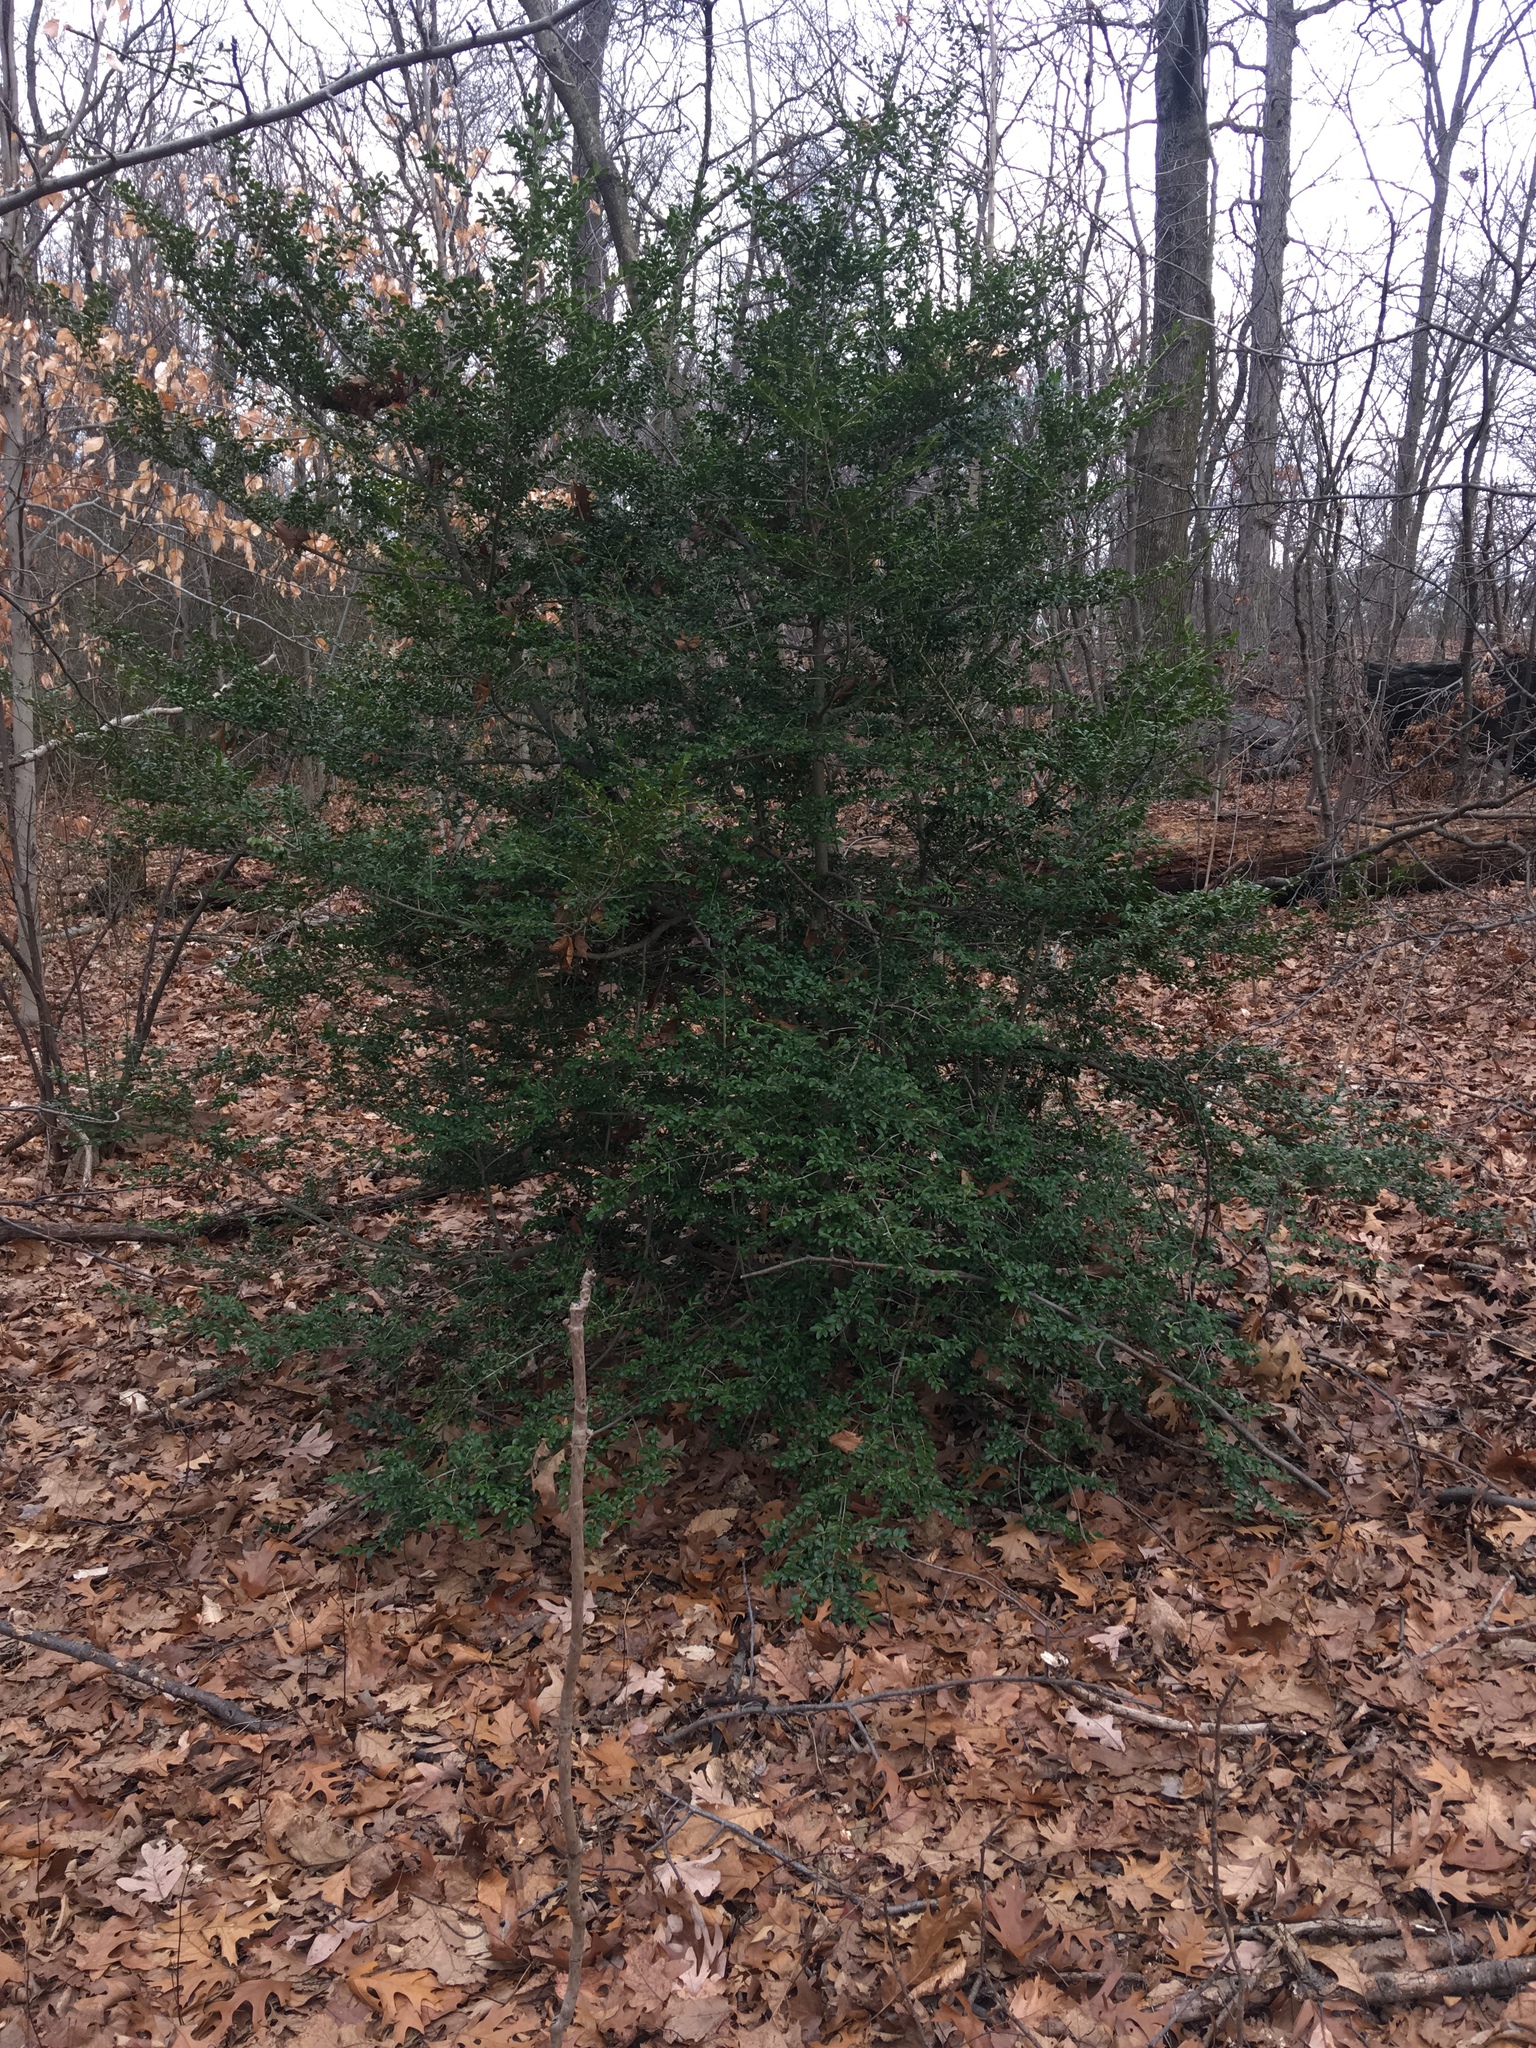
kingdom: Plantae
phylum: Tracheophyta
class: Magnoliopsida
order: Aquifoliales
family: Aquifoliaceae
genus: Ilex
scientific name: Ilex crenata
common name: Japanese holly
